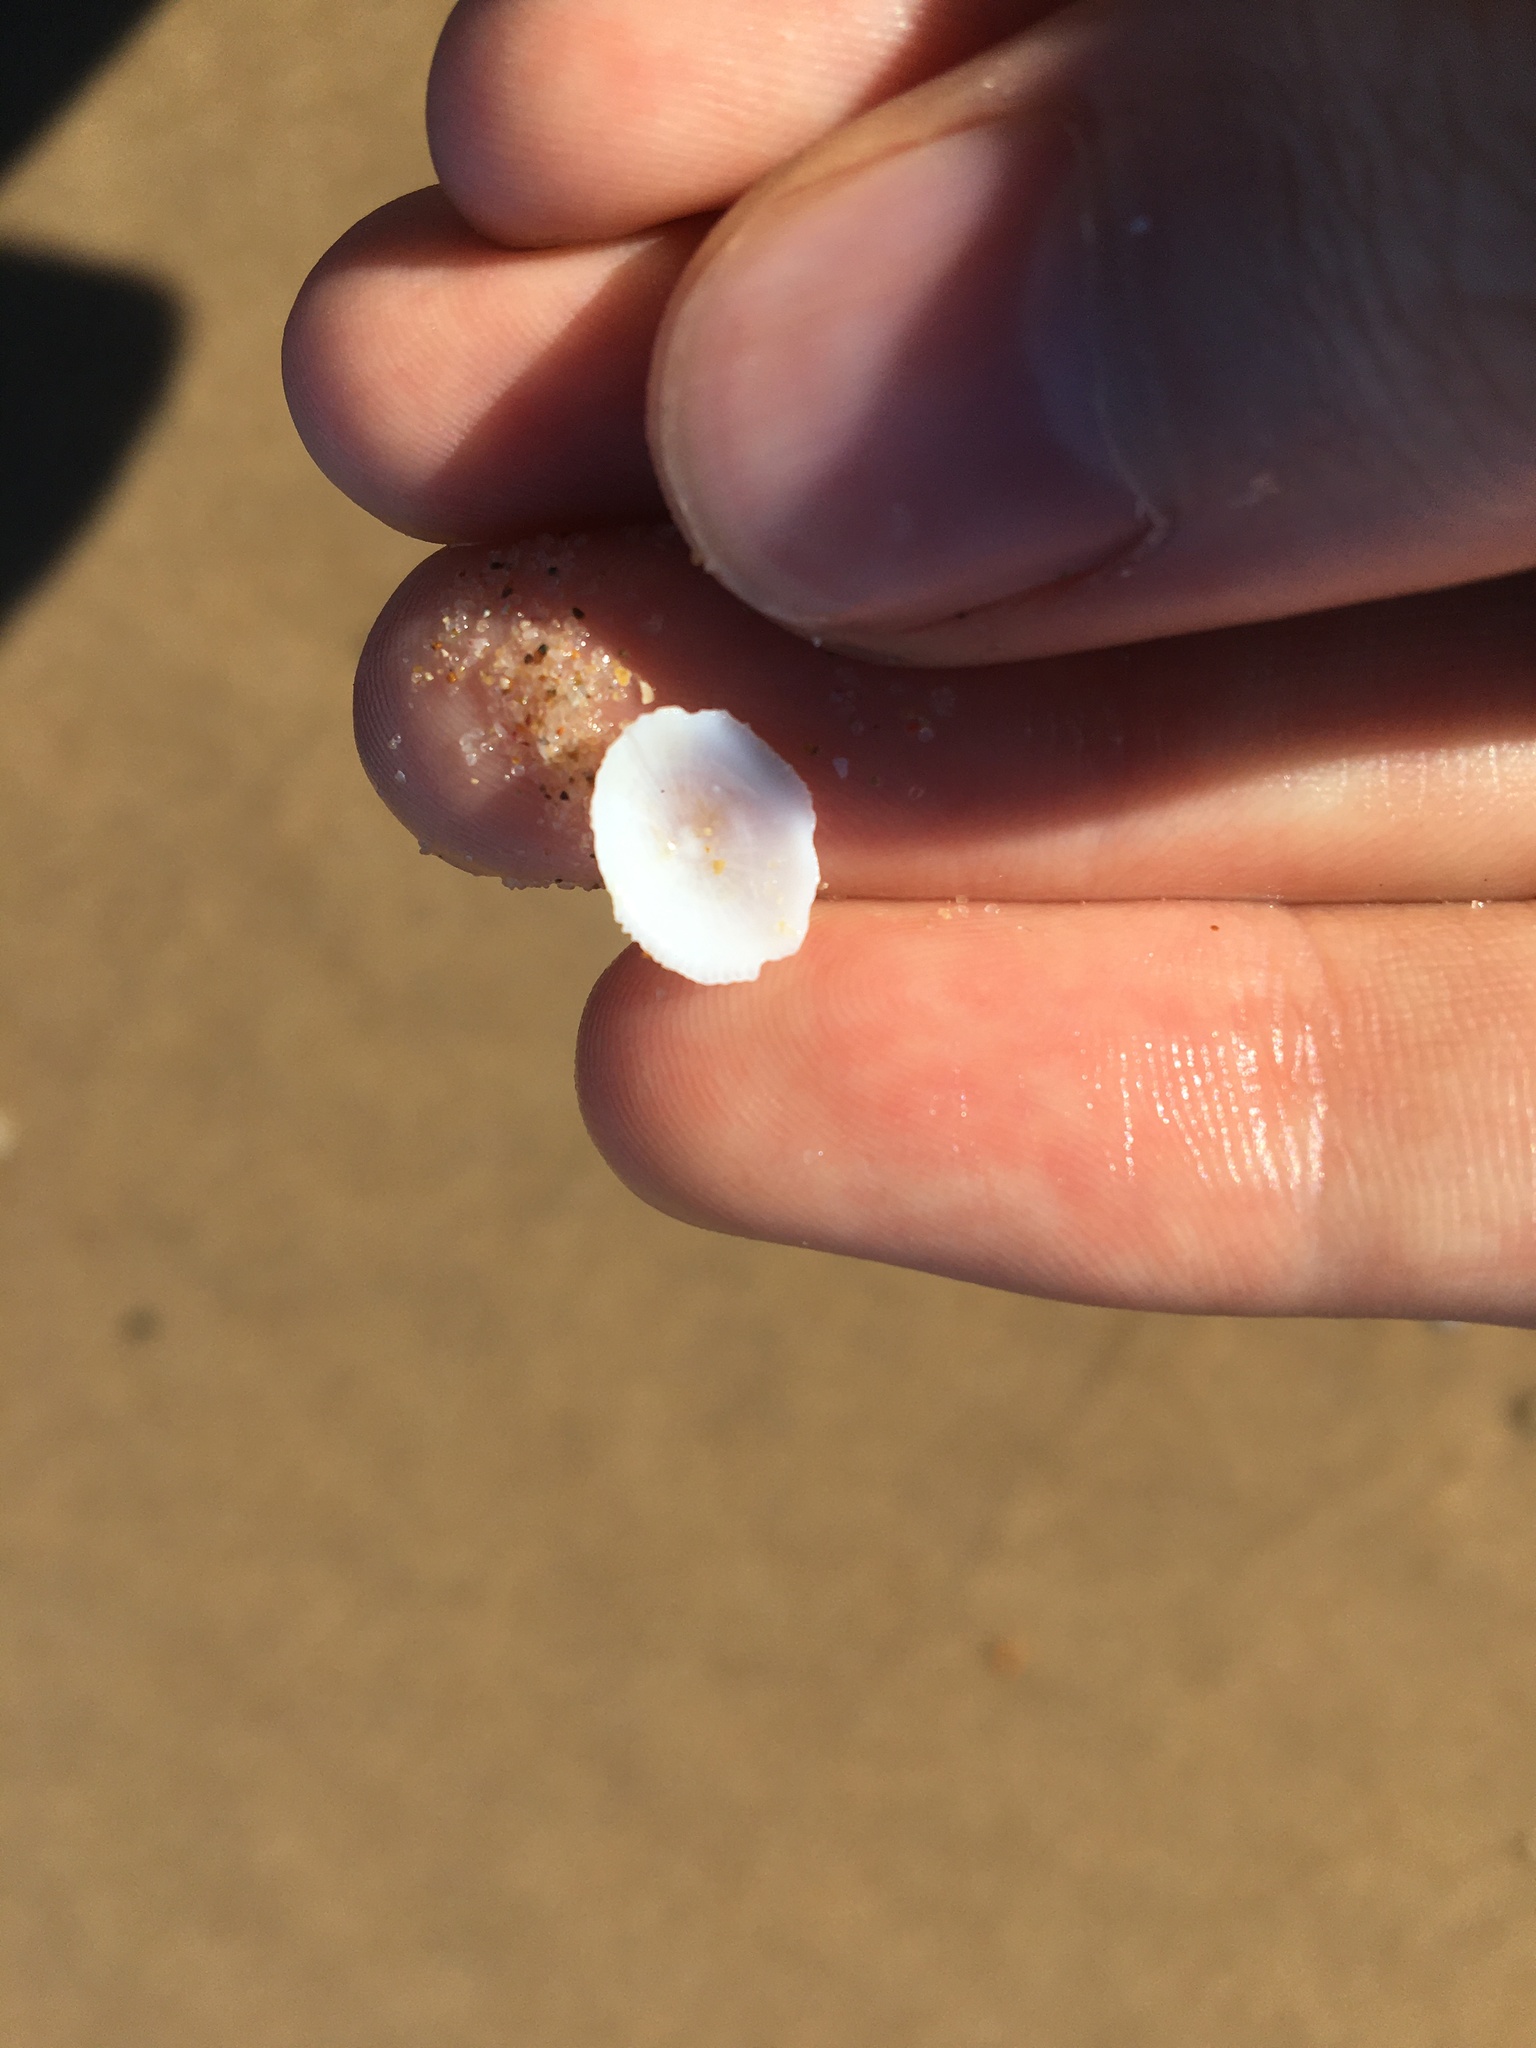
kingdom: Animalia
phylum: Mollusca
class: Gastropoda
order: Lepetellida
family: Fissurellidae
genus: Montfortula
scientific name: Montfortula rugosa
